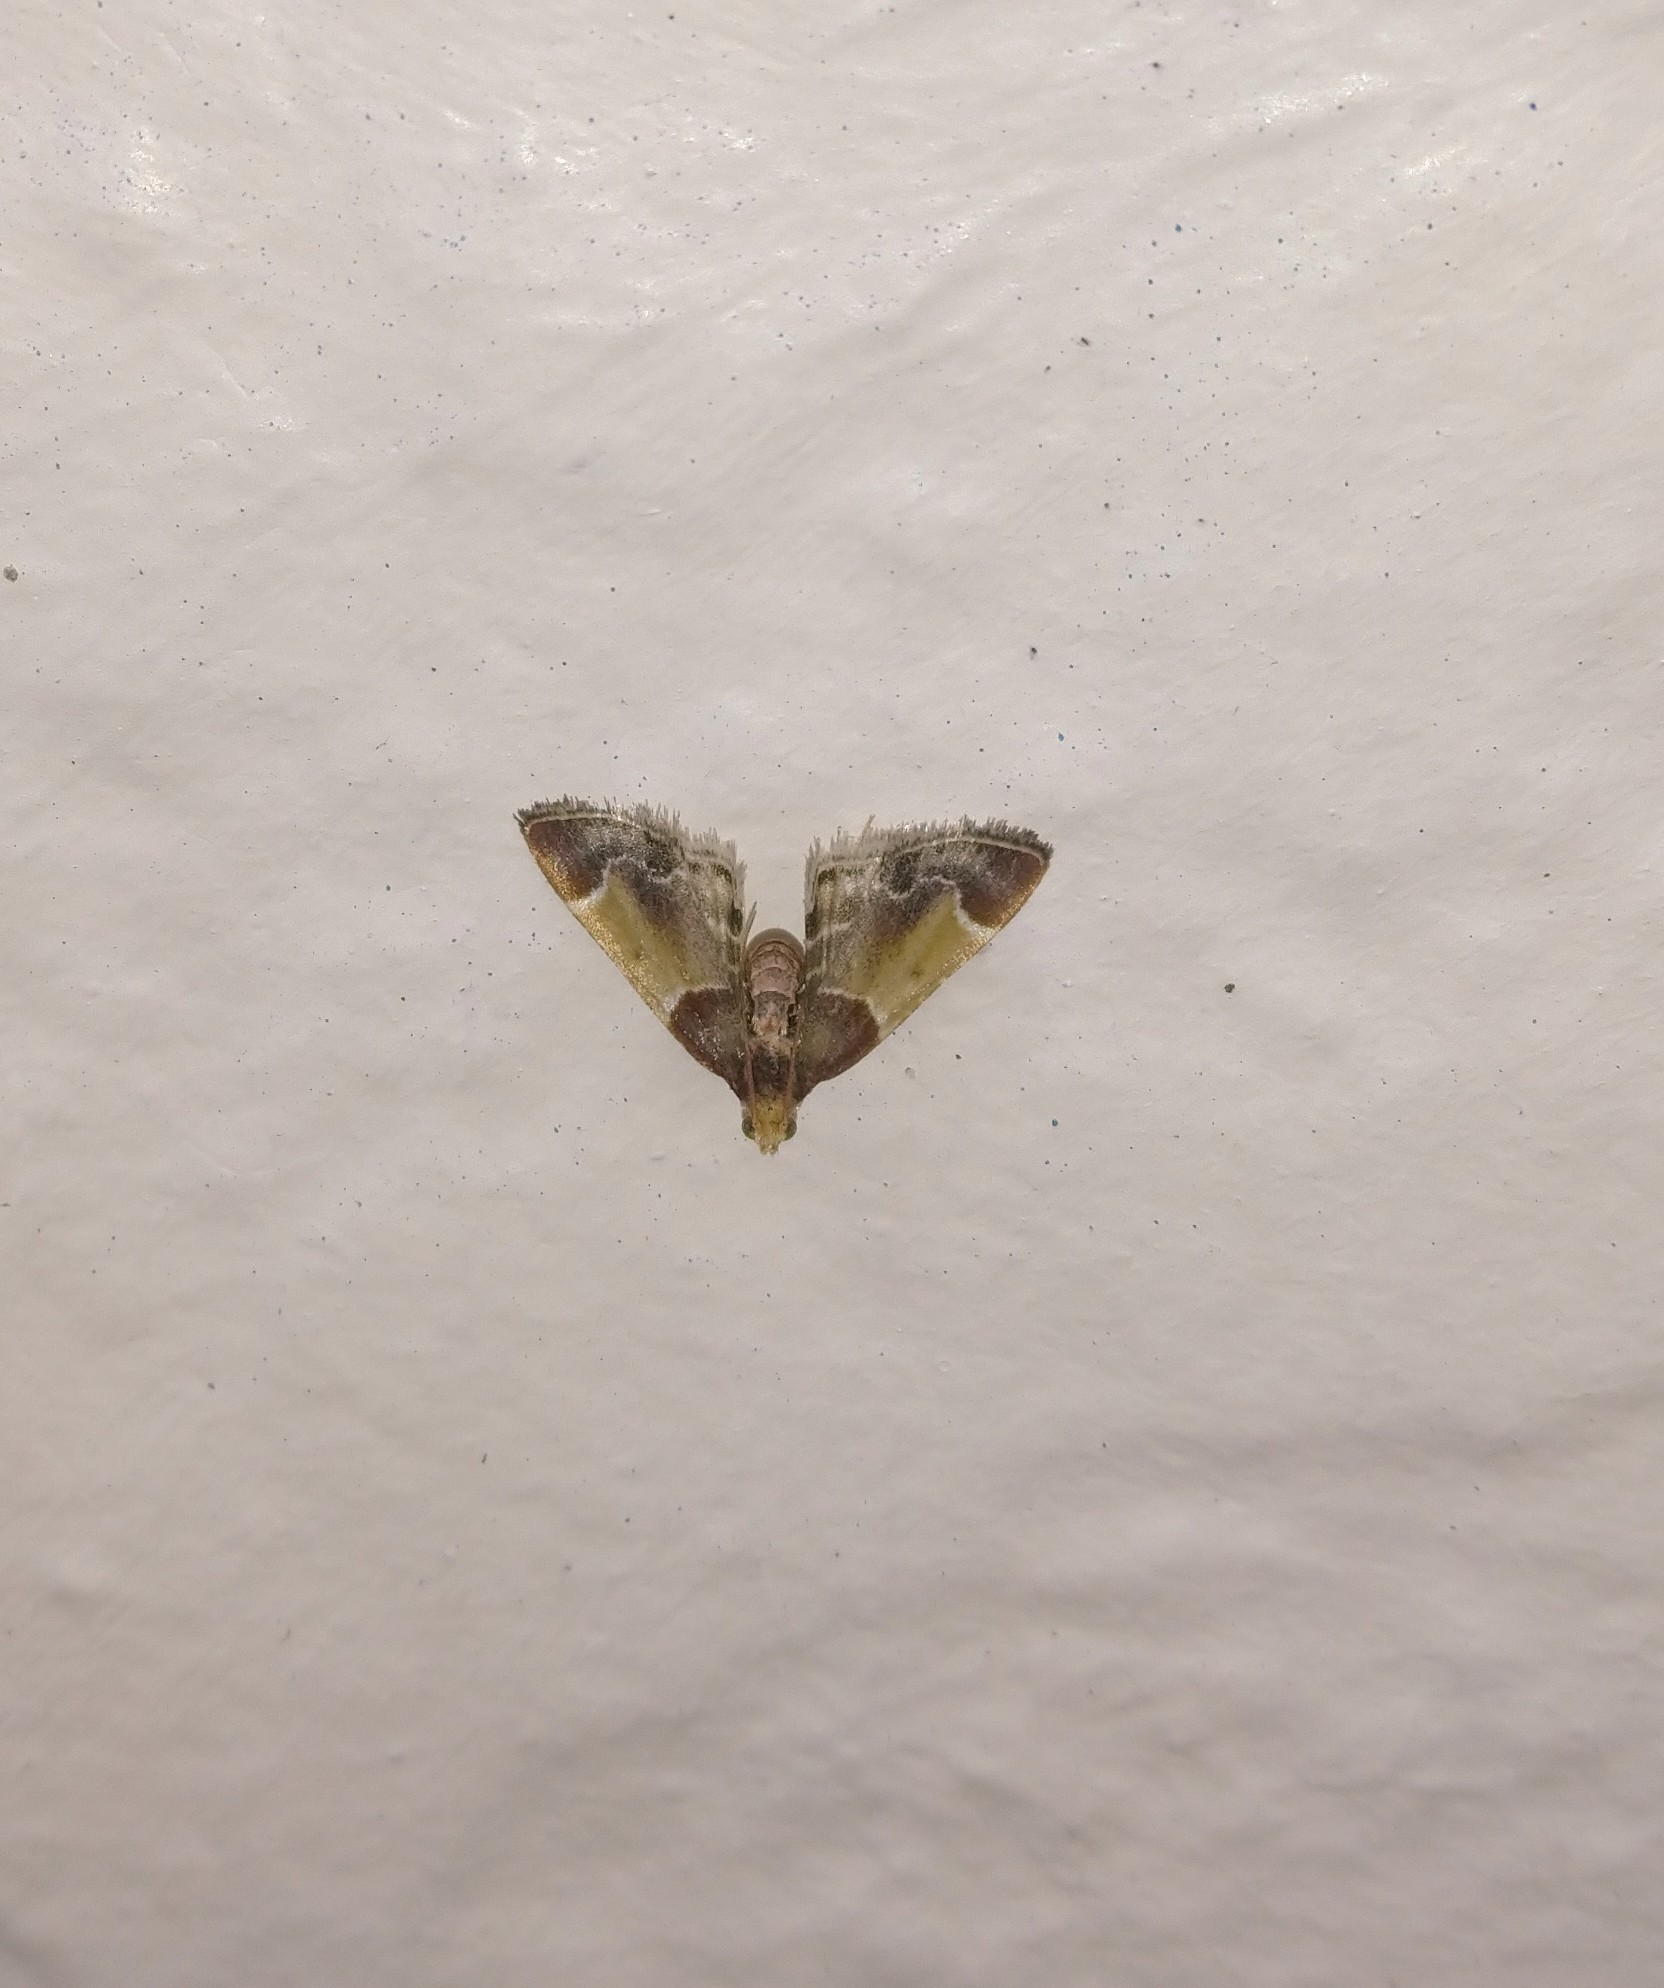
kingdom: Animalia
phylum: Arthropoda
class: Insecta
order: Lepidoptera
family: Pyralidae
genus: Pyralis
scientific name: Pyralis farinalis
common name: Meal moth
